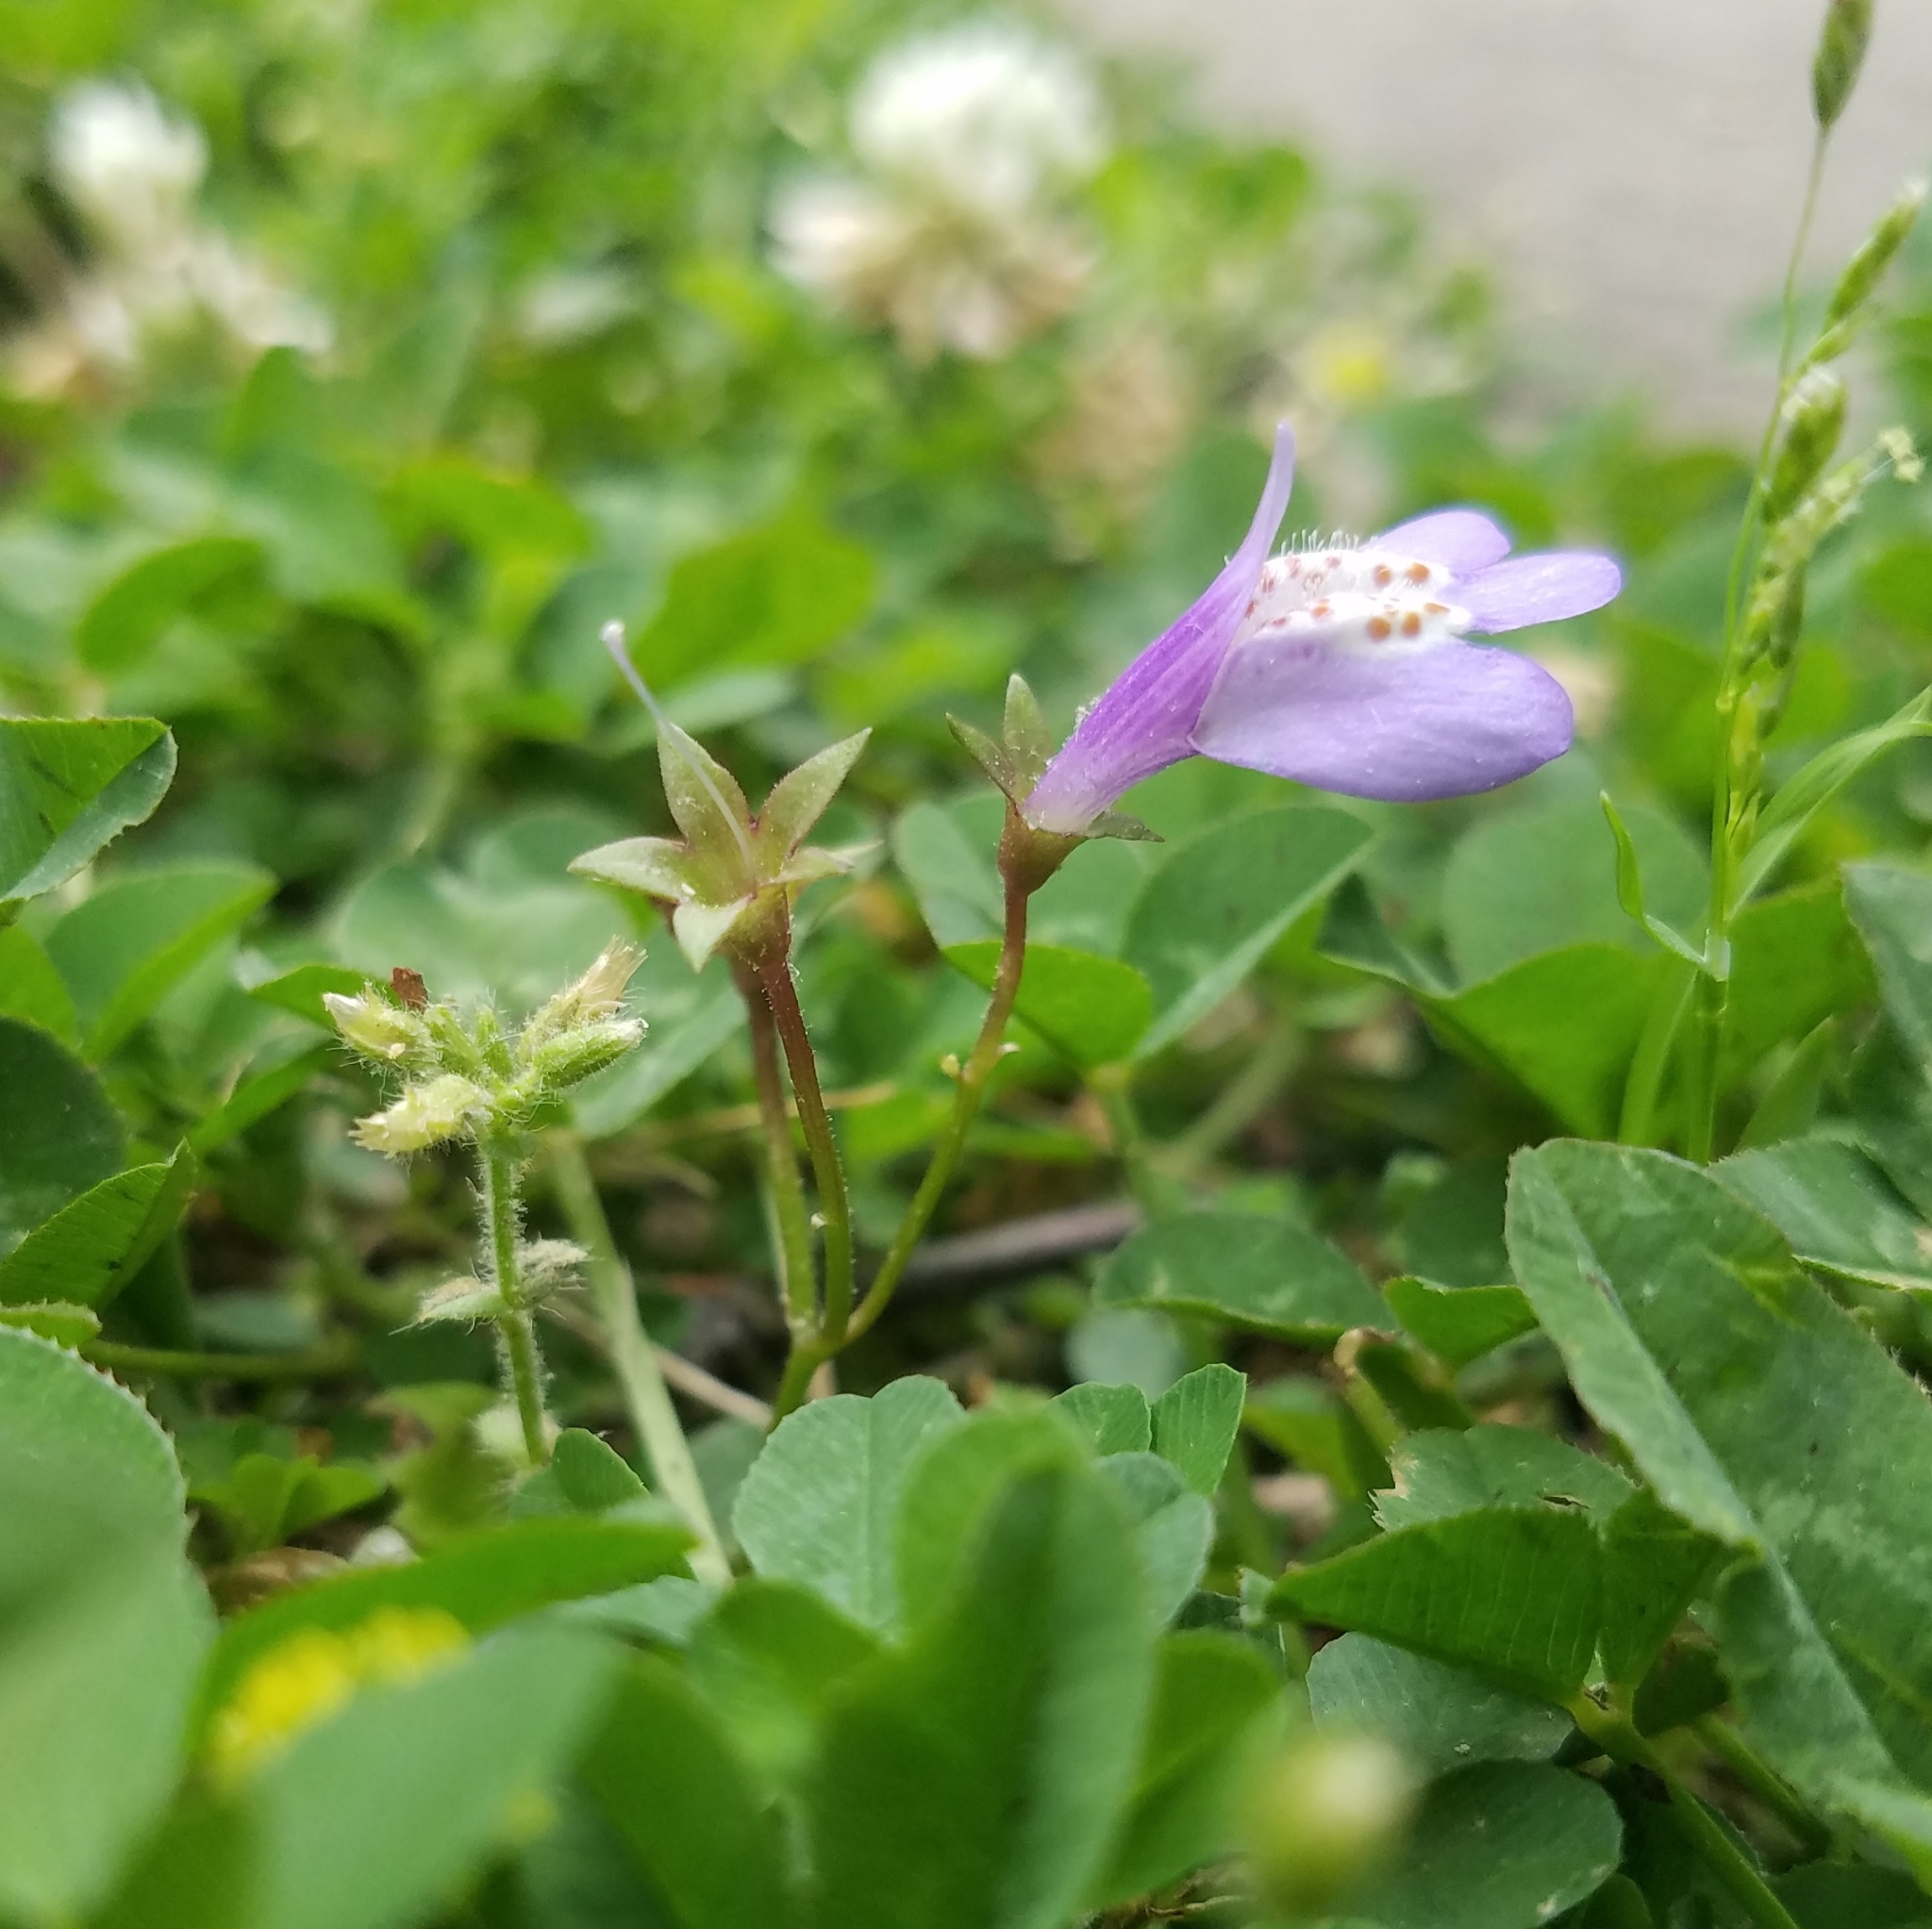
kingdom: Plantae
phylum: Tracheophyta
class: Magnoliopsida
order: Lamiales
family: Mazaceae
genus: Mazus
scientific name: Mazus miquelii
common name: Miquel's mazus
